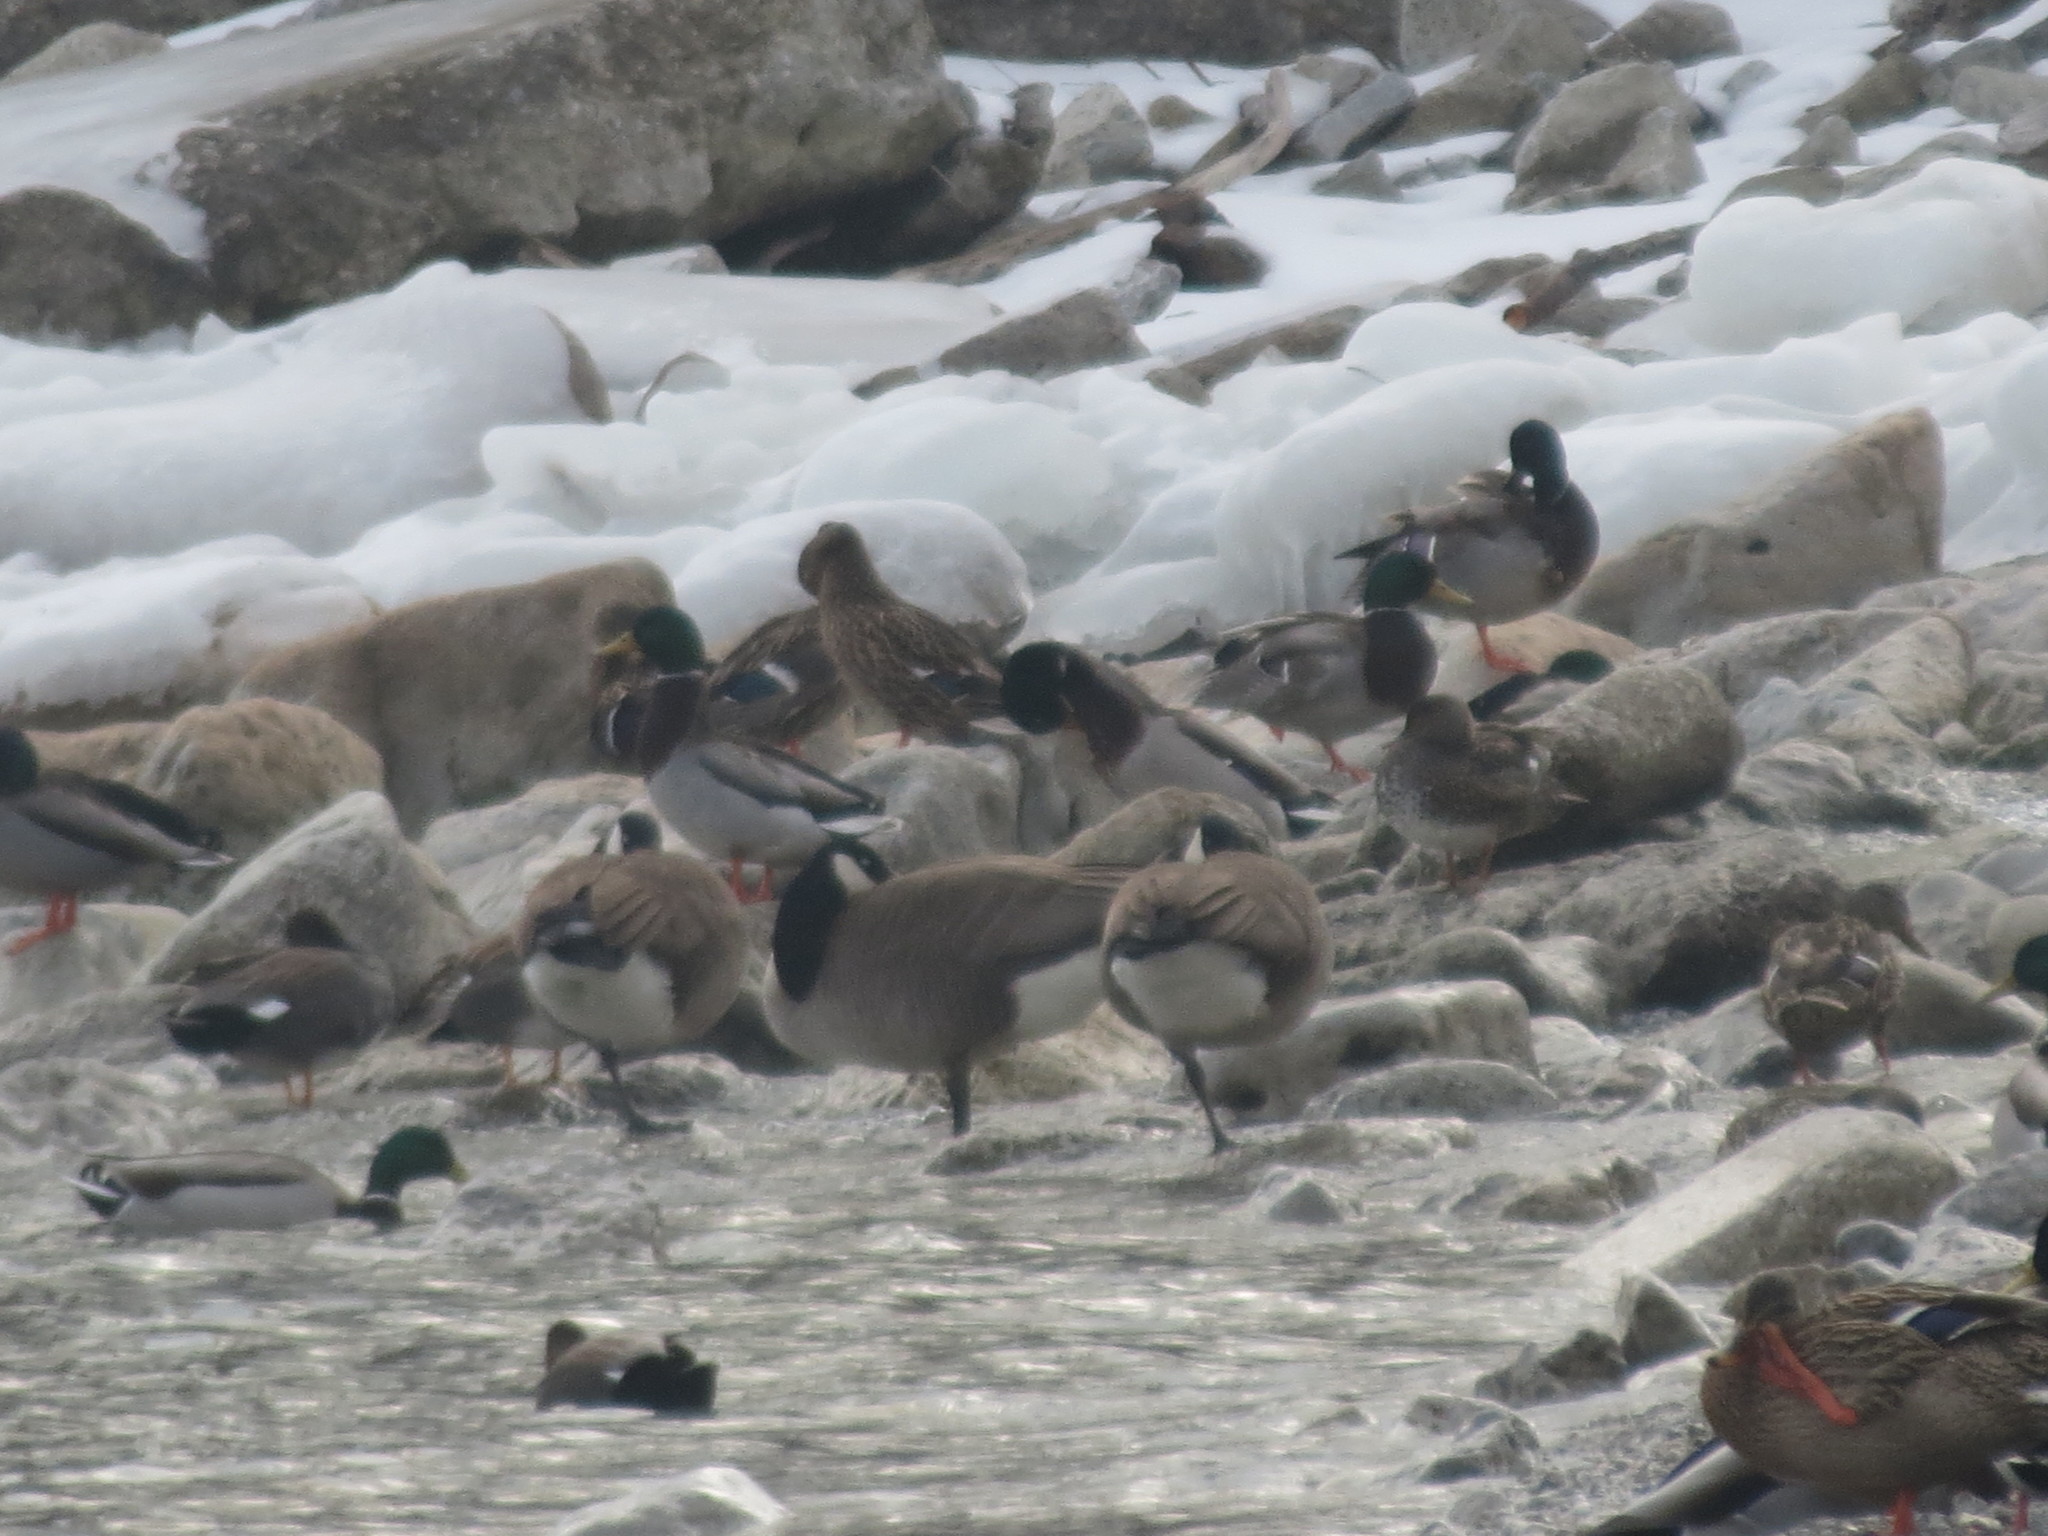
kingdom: Animalia
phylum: Chordata
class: Aves
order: Anseriformes
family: Anatidae
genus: Branta
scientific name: Branta canadensis
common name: Canada goose
